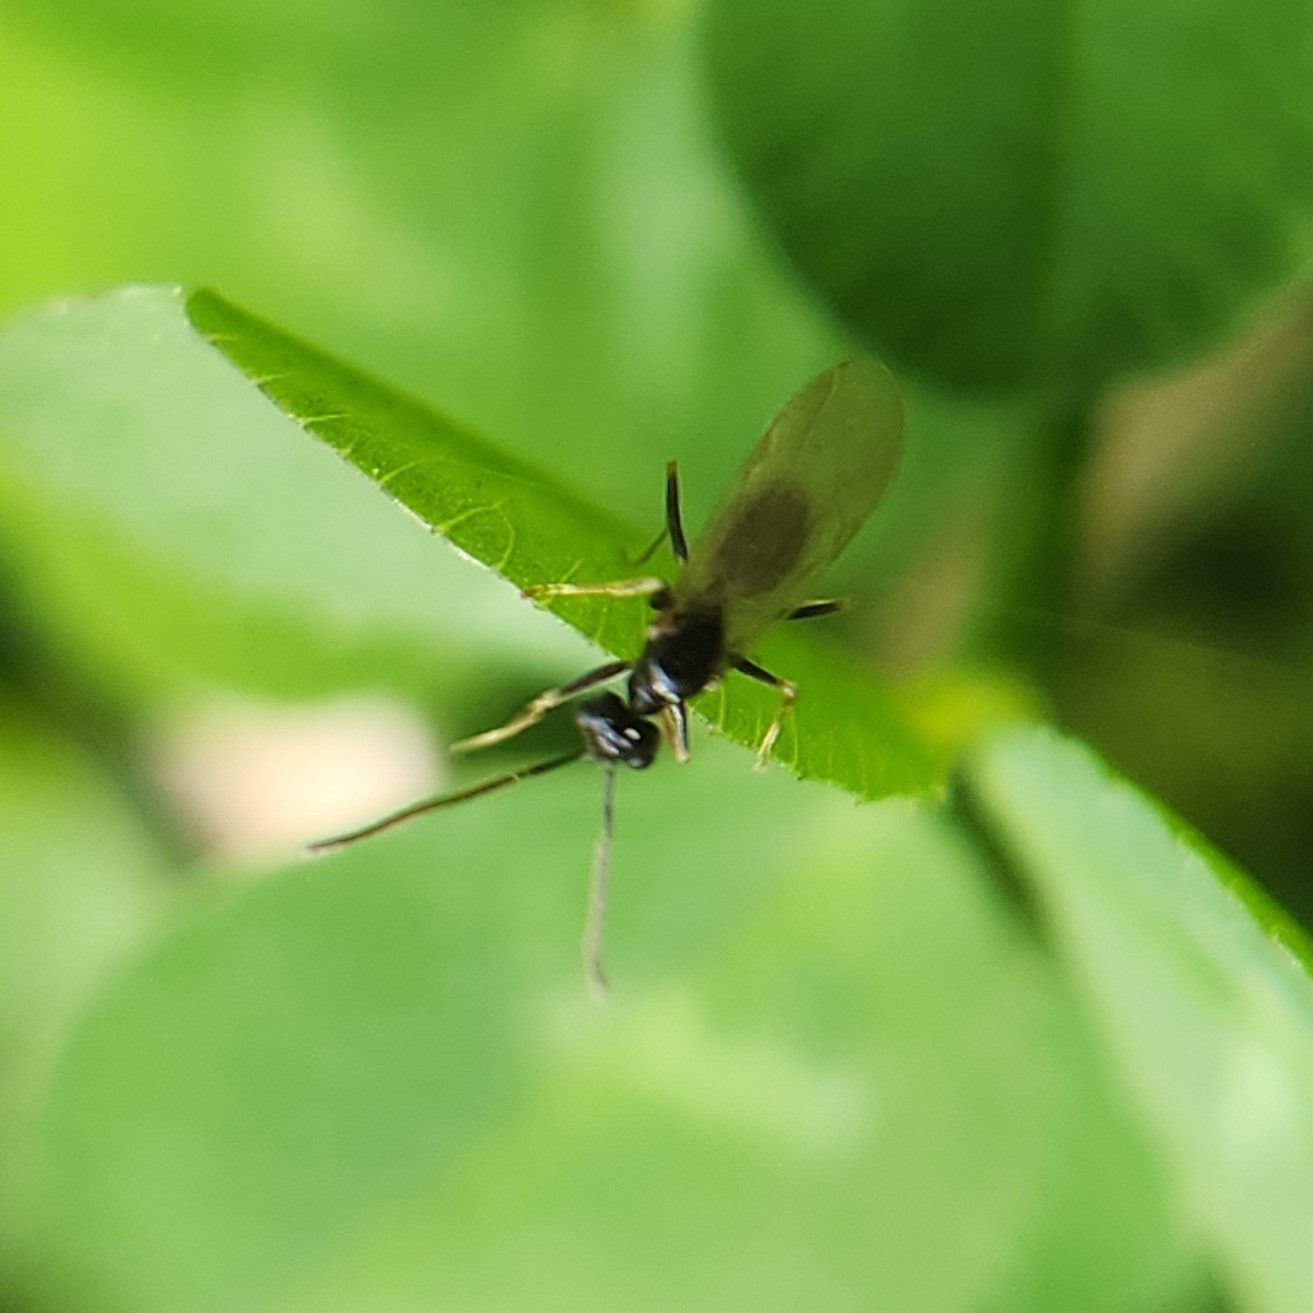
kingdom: Animalia
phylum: Arthropoda
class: Insecta
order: Hymenoptera
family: Formicidae
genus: Prenolepis
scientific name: Prenolepis imparis
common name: Small honey ant
